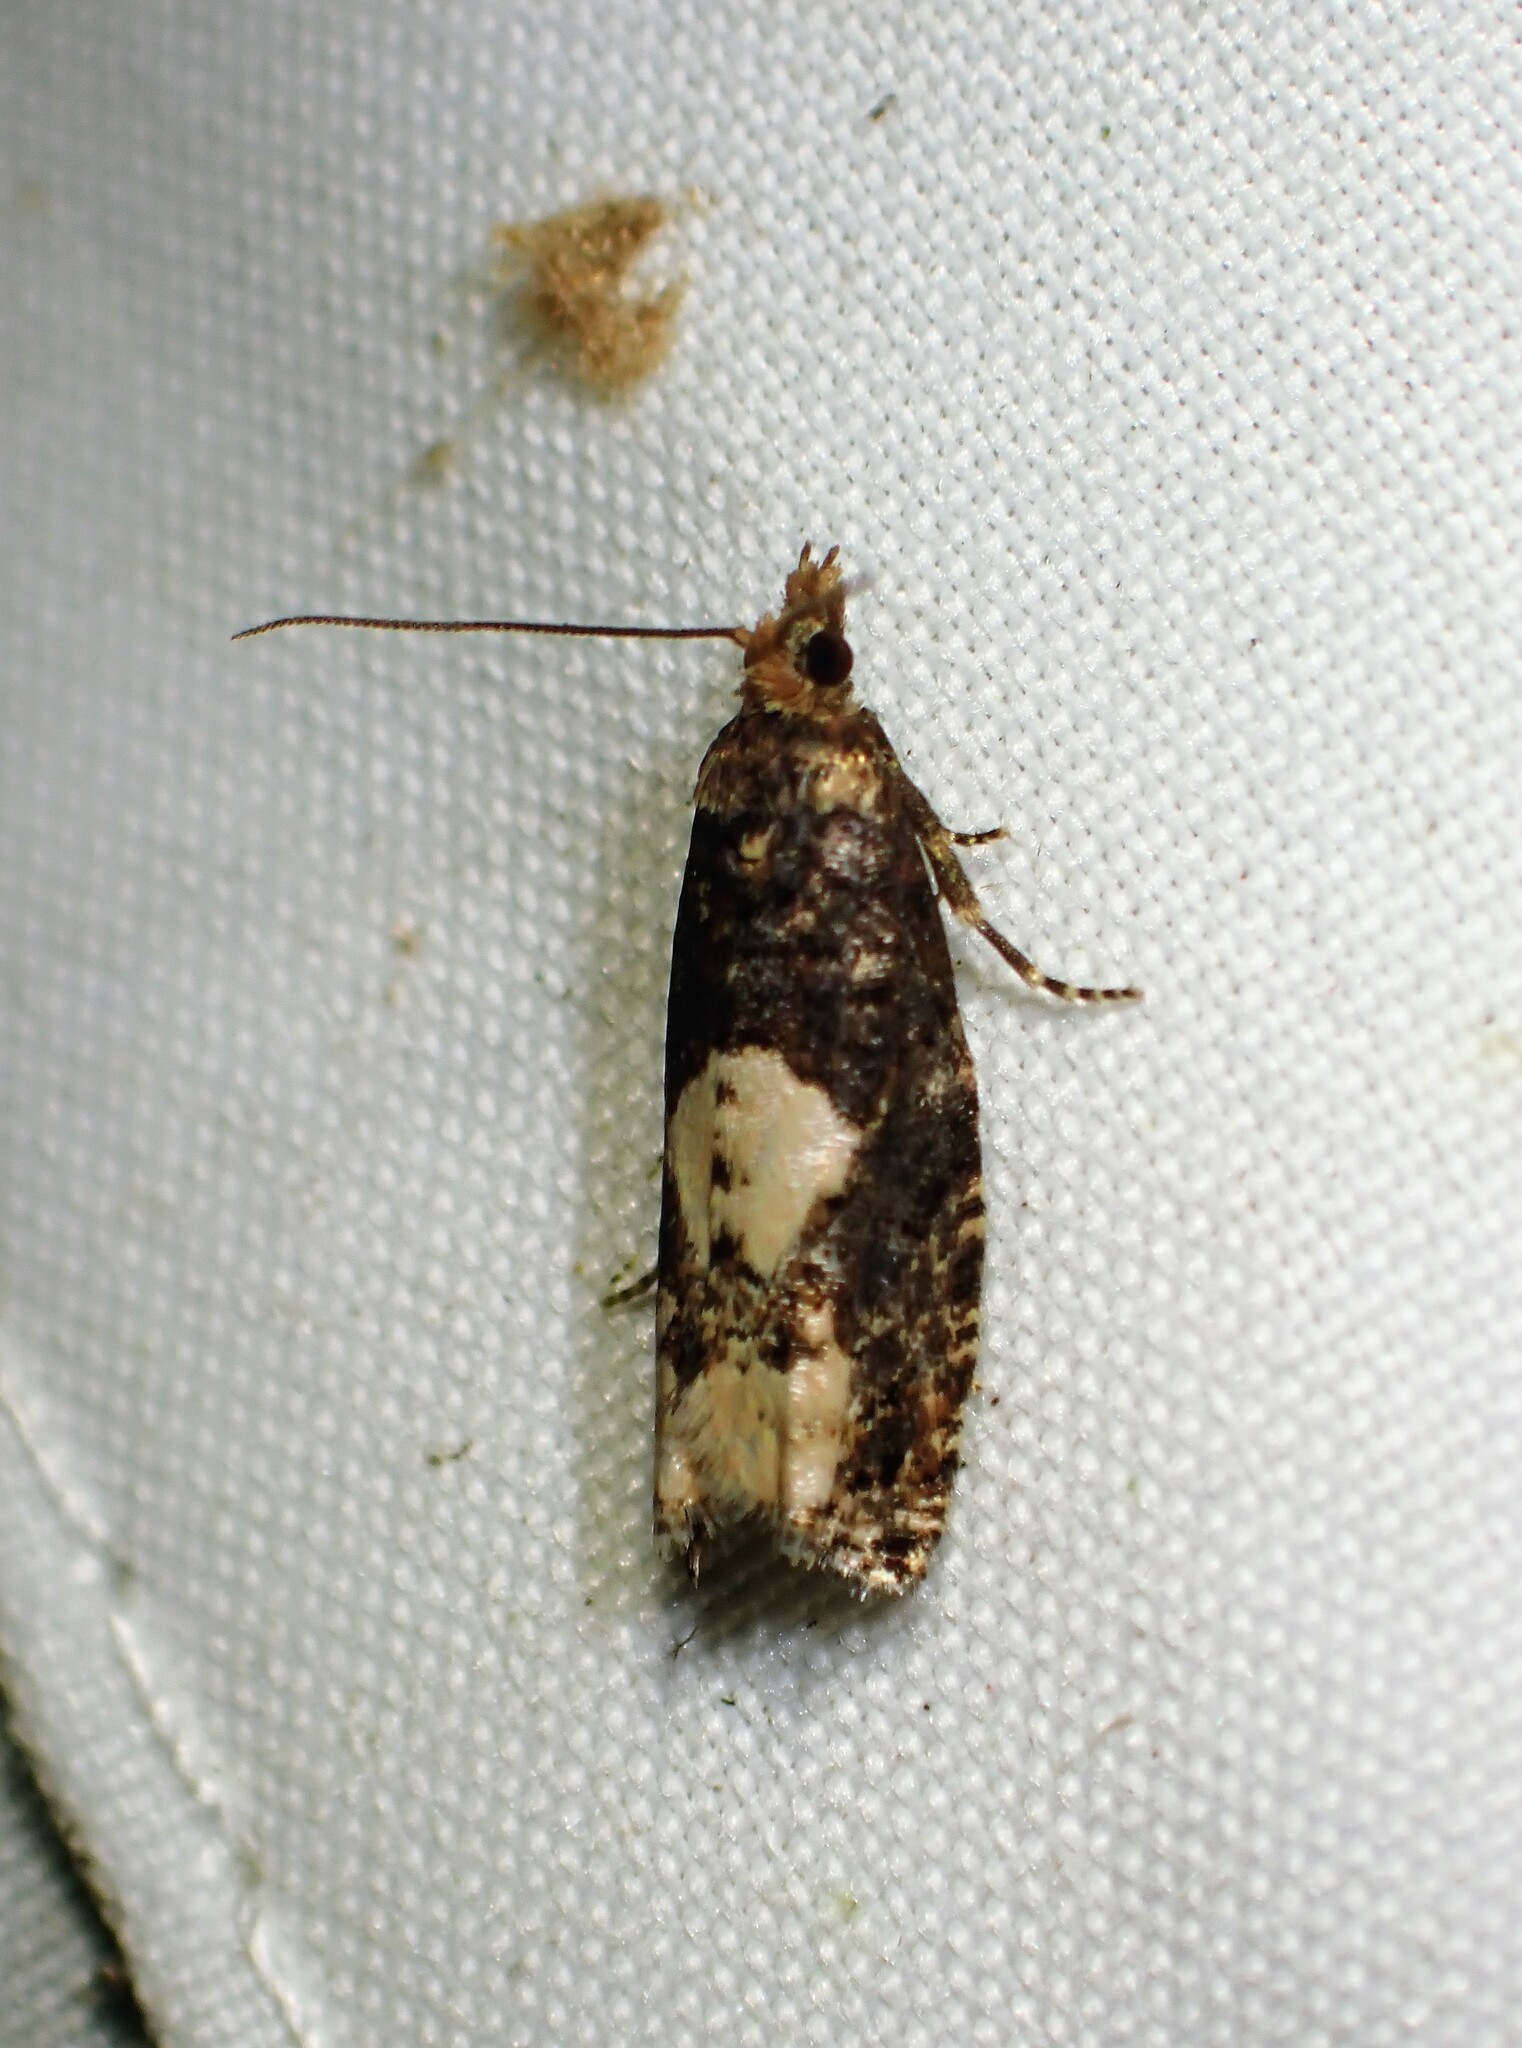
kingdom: Animalia
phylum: Arthropoda
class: Insecta
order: Lepidoptera
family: Tortricidae
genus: Epinotia
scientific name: Epinotia trigonella
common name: White-blotch bell
